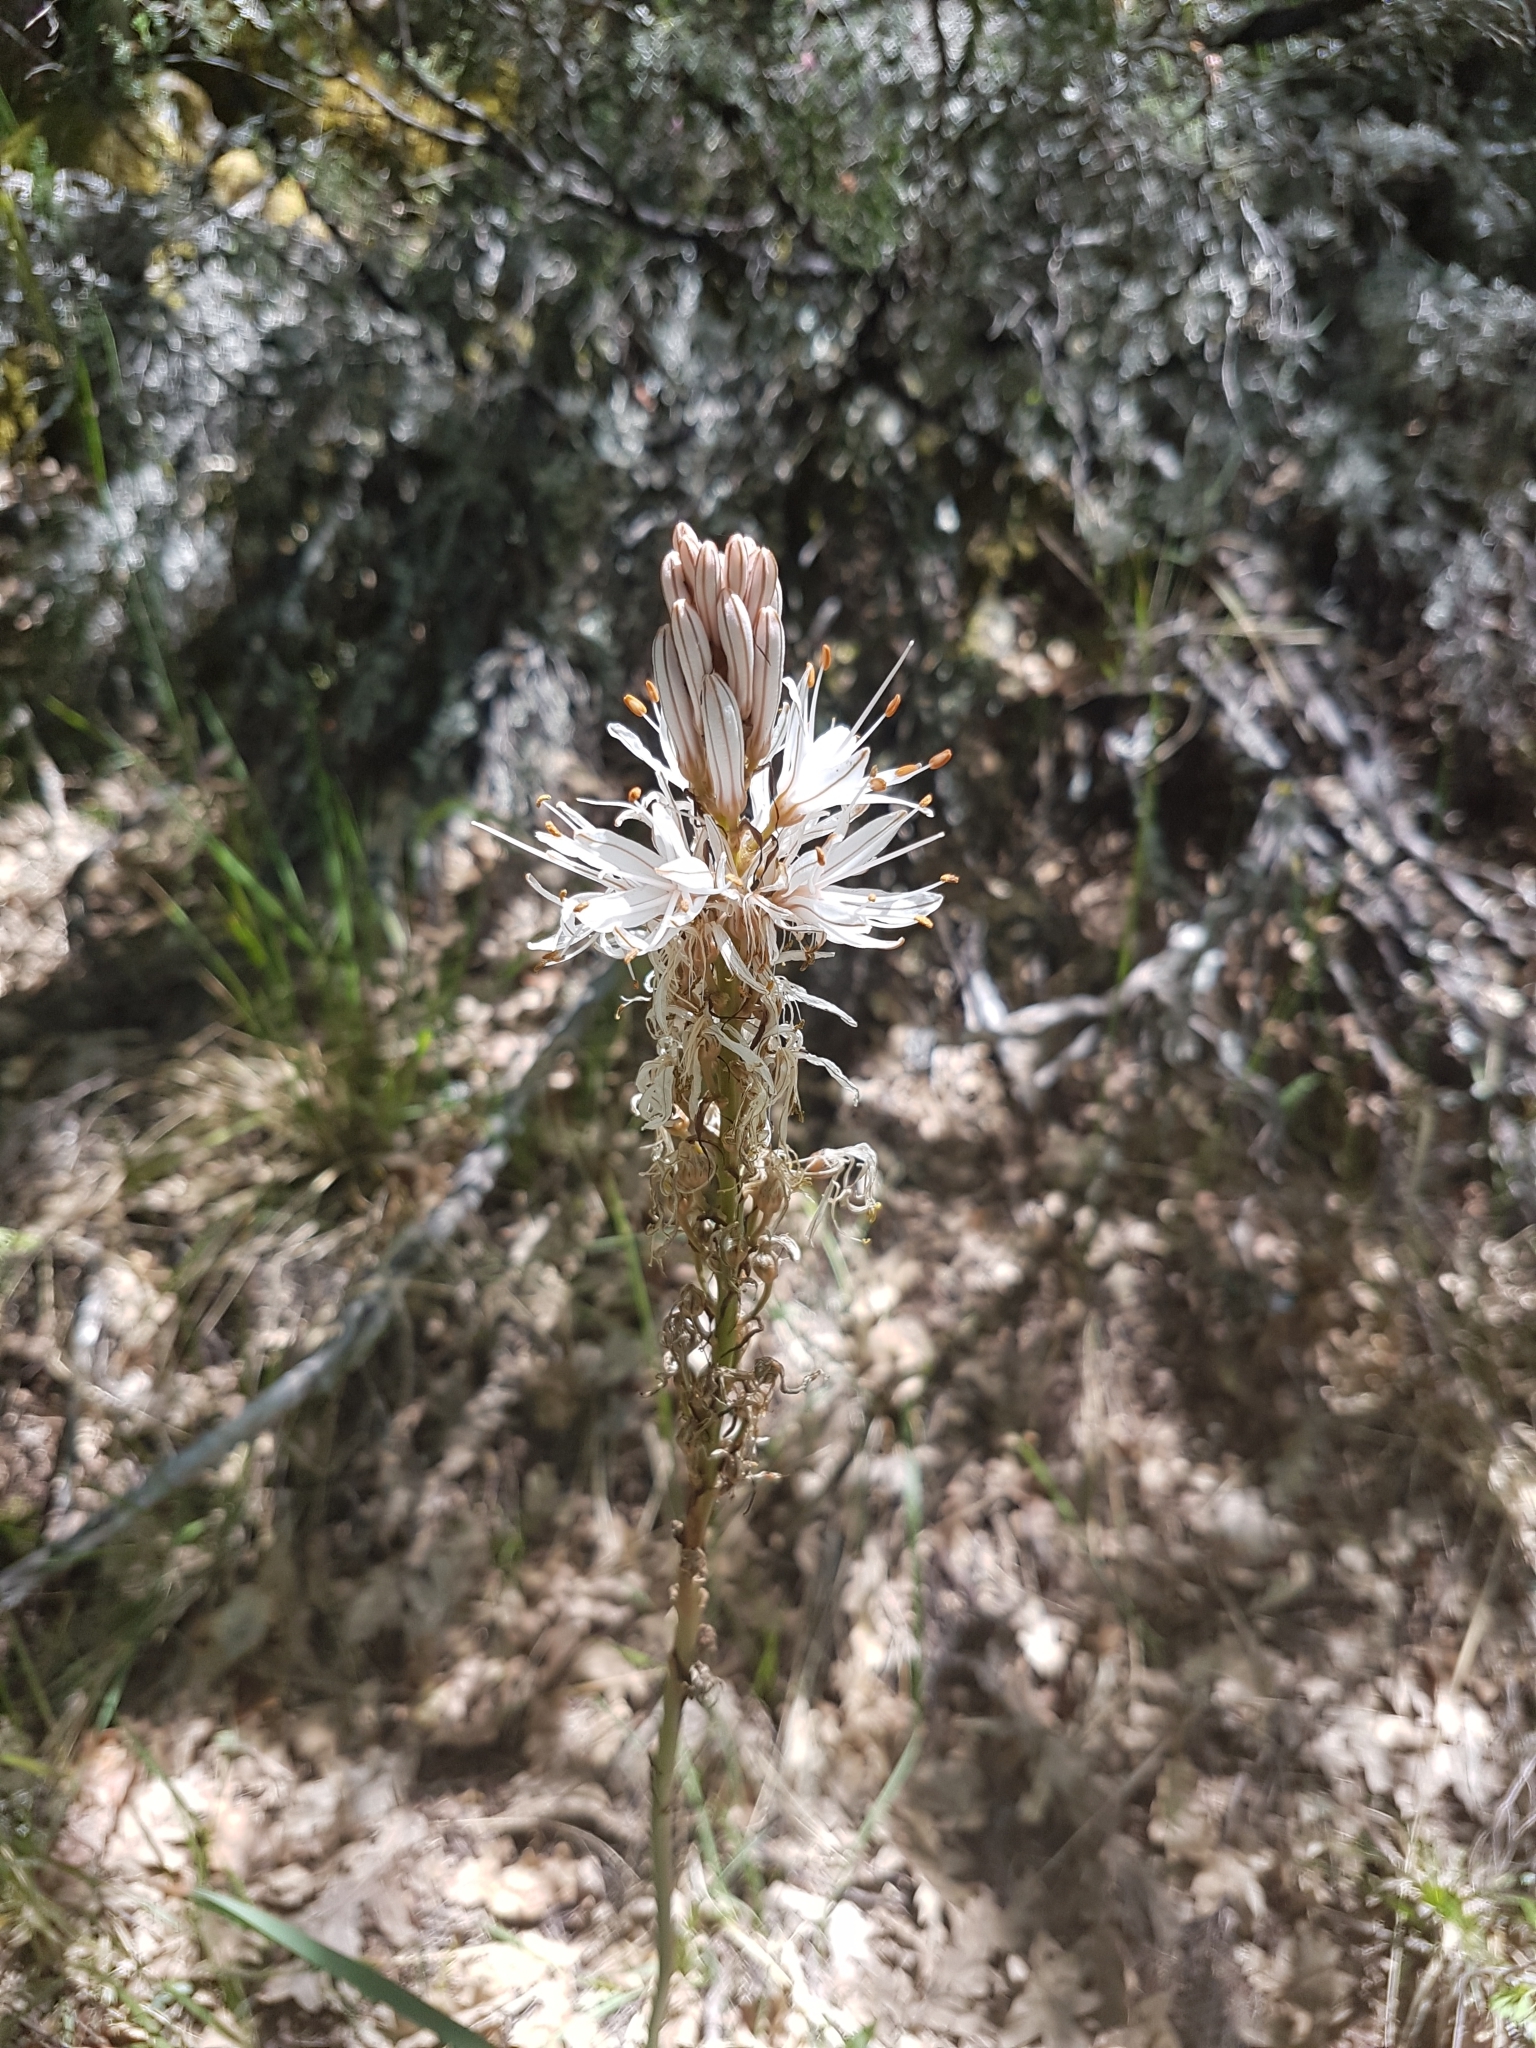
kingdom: Plantae
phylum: Tracheophyta
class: Liliopsida
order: Asparagales
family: Asphodelaceae
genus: Asphodelus
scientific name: Asphodelus albus
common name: White asphodel
